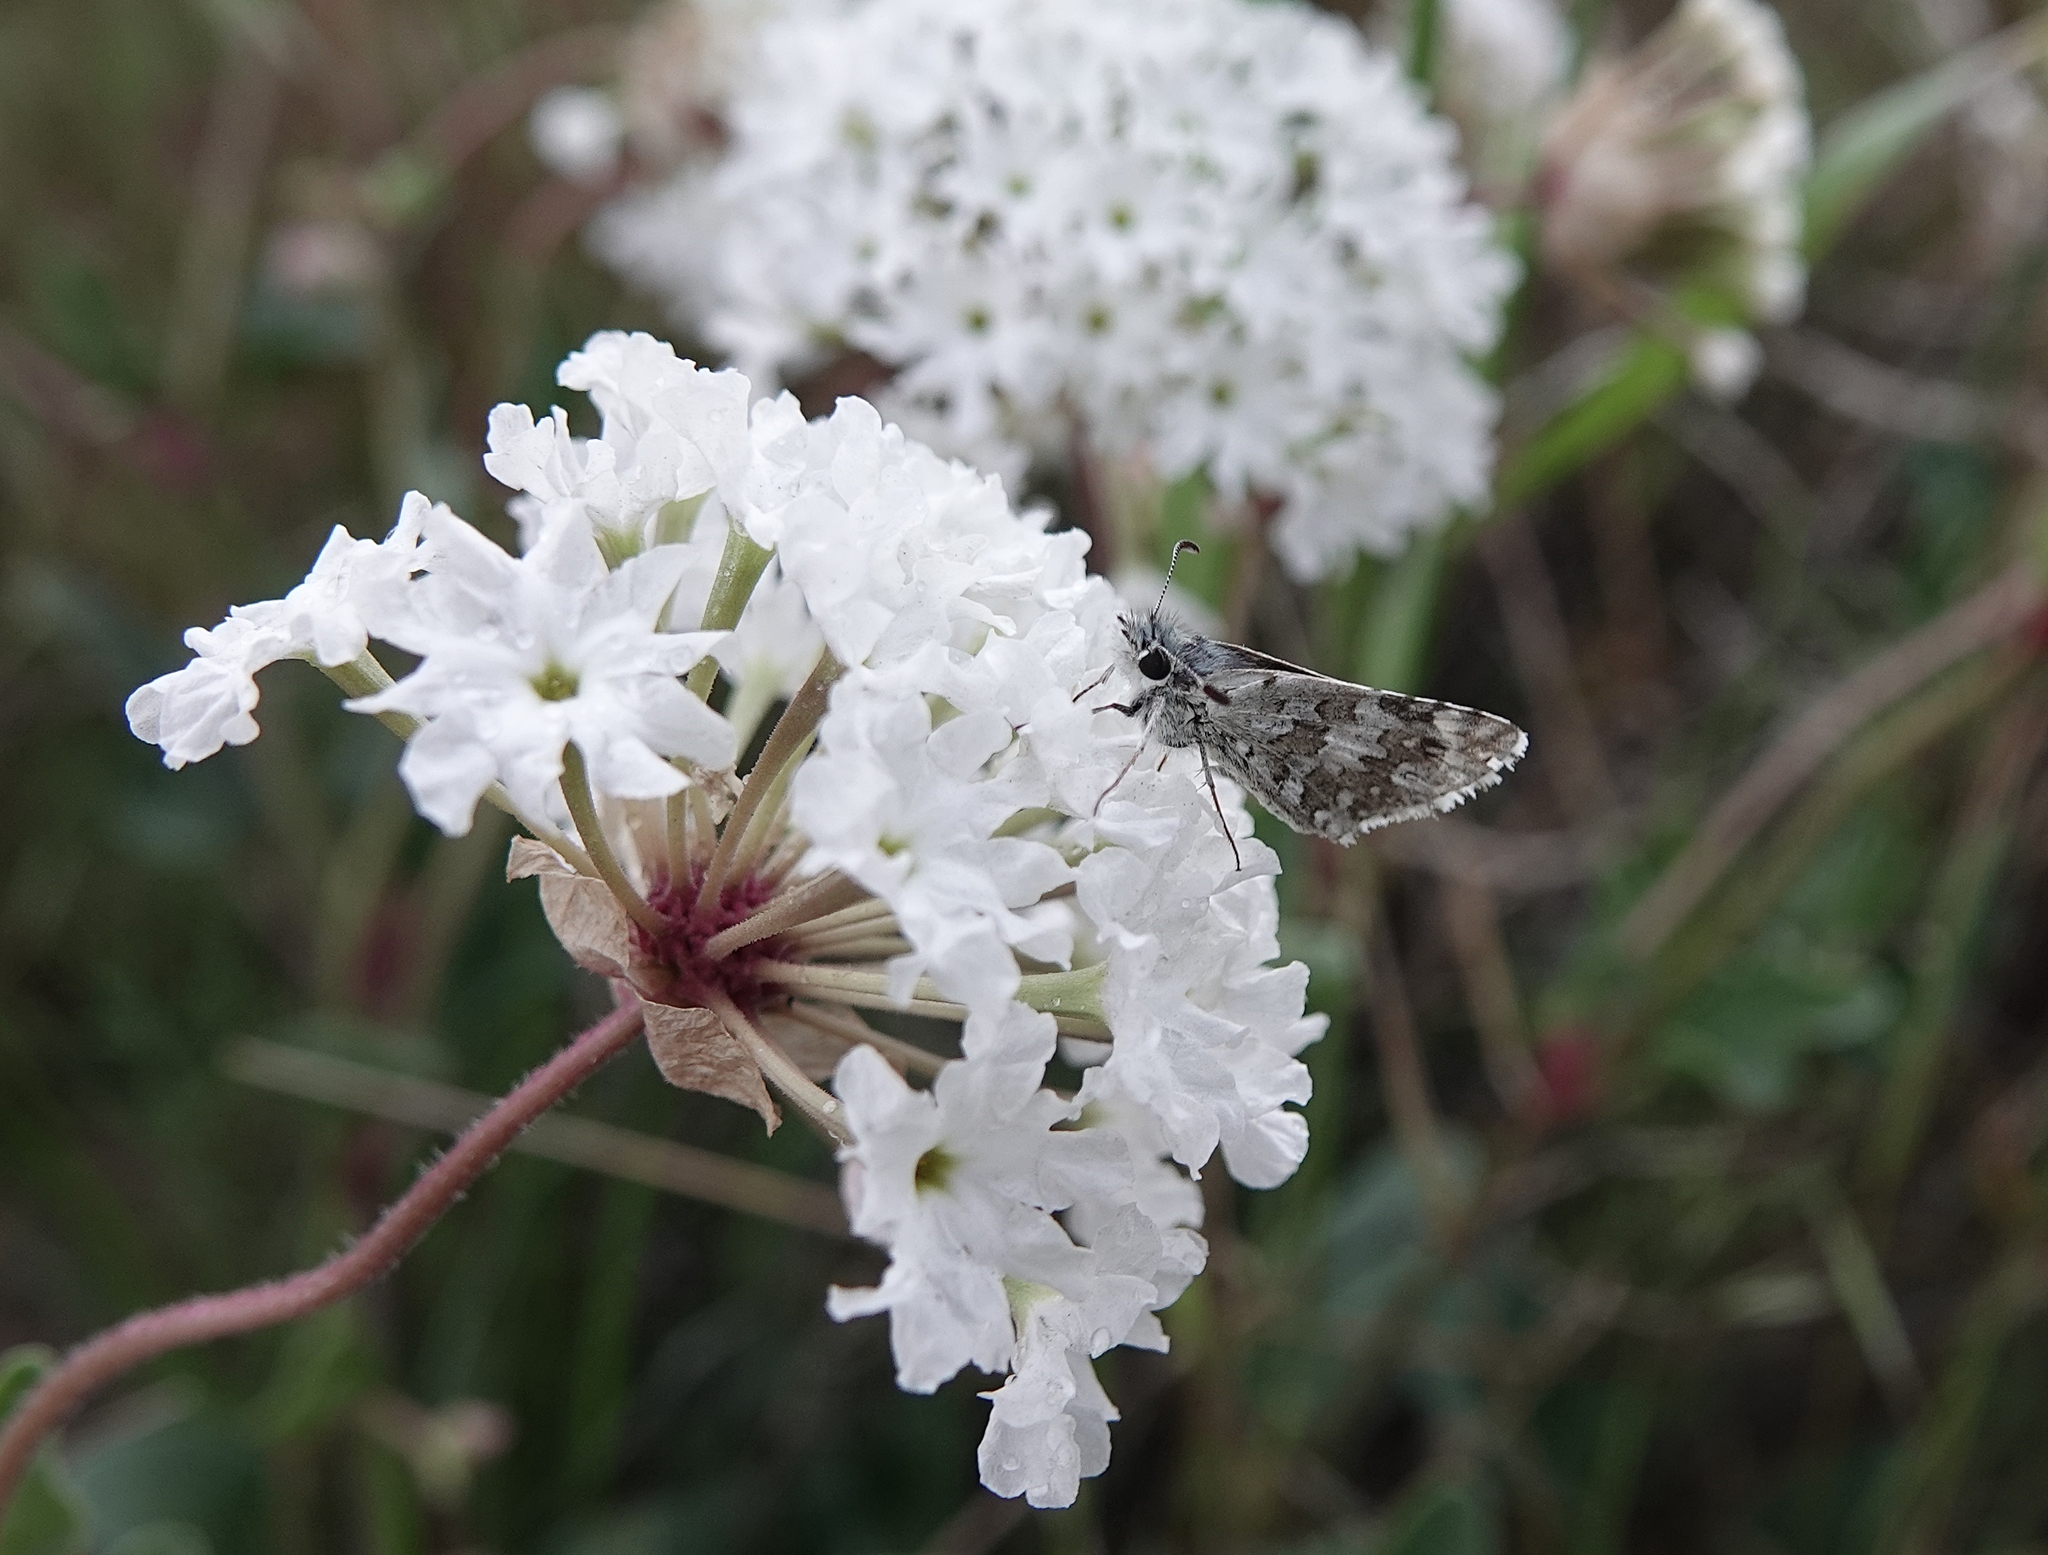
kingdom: Plantae
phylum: Tracheophyta
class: Magnoliopsida
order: Caryophyllales
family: Nyctaginaceae
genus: Abronia
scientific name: Abronia fragrans
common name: Fragrant sand-verbena
